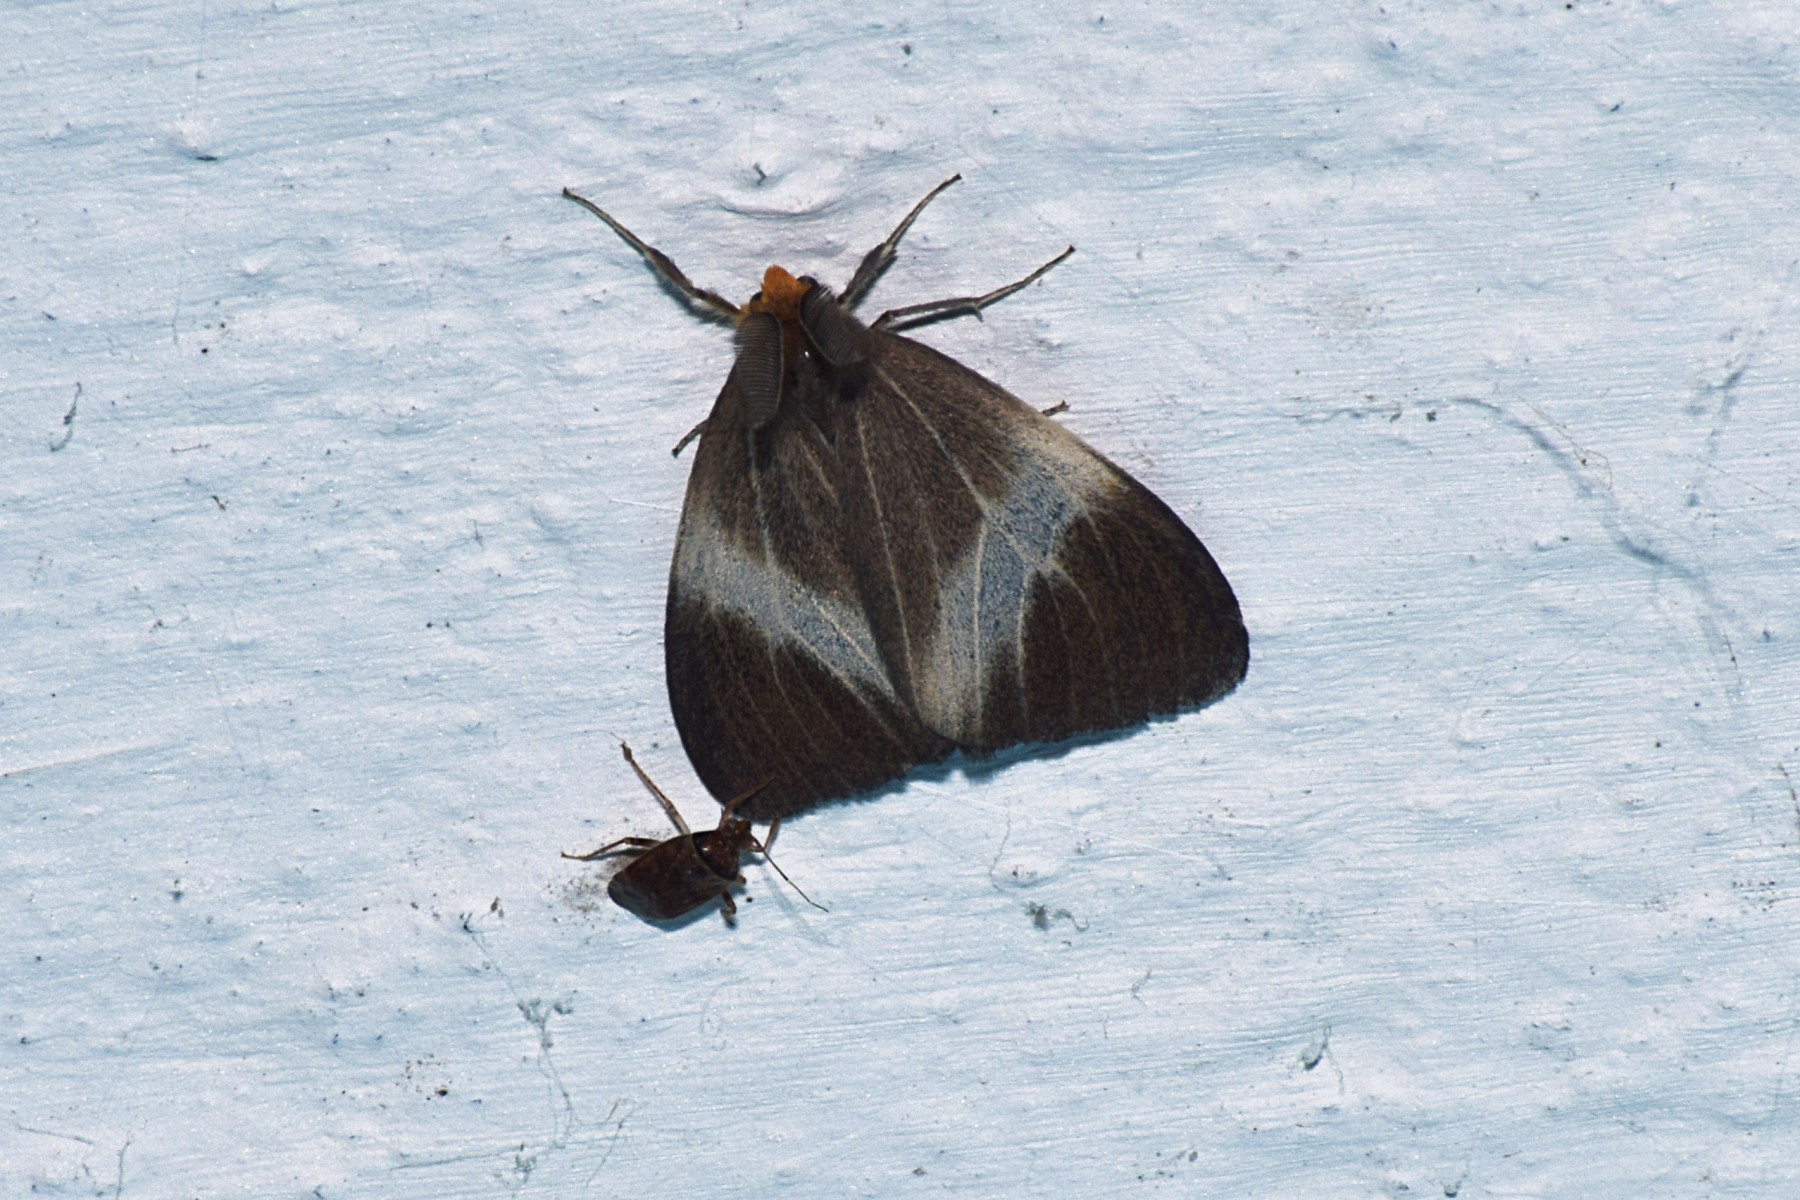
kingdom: Animalia
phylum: Arthropoda
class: Insecta
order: Lepidoptera
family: Erebidae
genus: Pantana
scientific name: Pantana luteiceps
